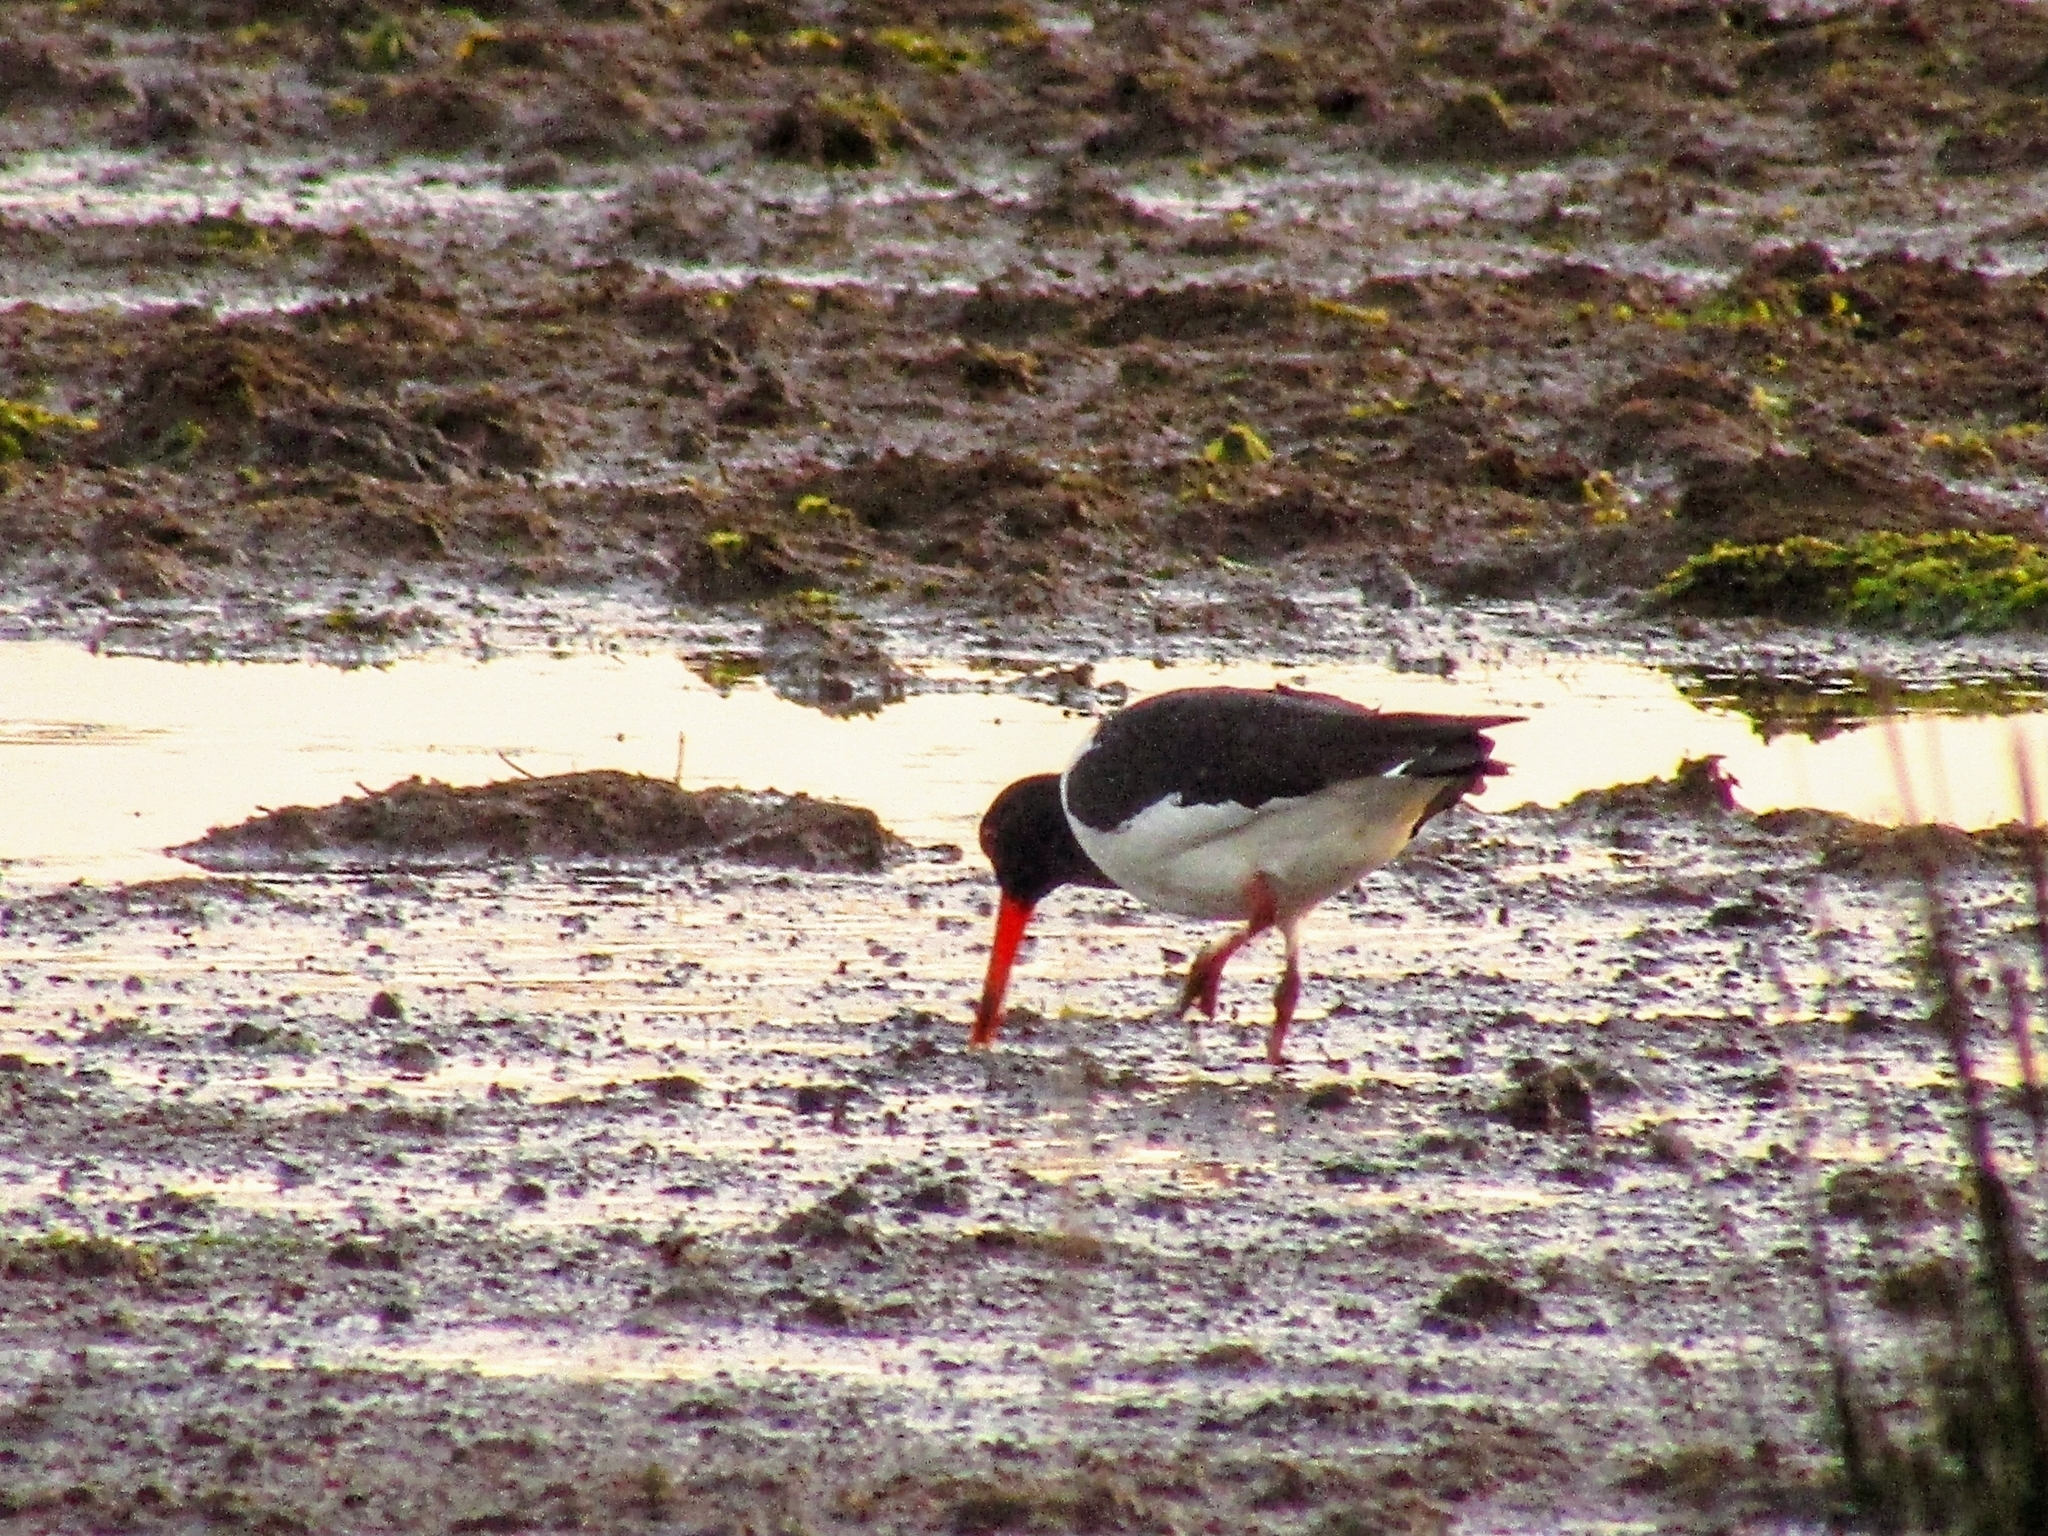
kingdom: Animalia
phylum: Chordata
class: Aves
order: Charadriiformes
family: Haematopodidae
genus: Haematopus
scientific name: Haematopus ostralegus
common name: Eurasian oystercatcher
